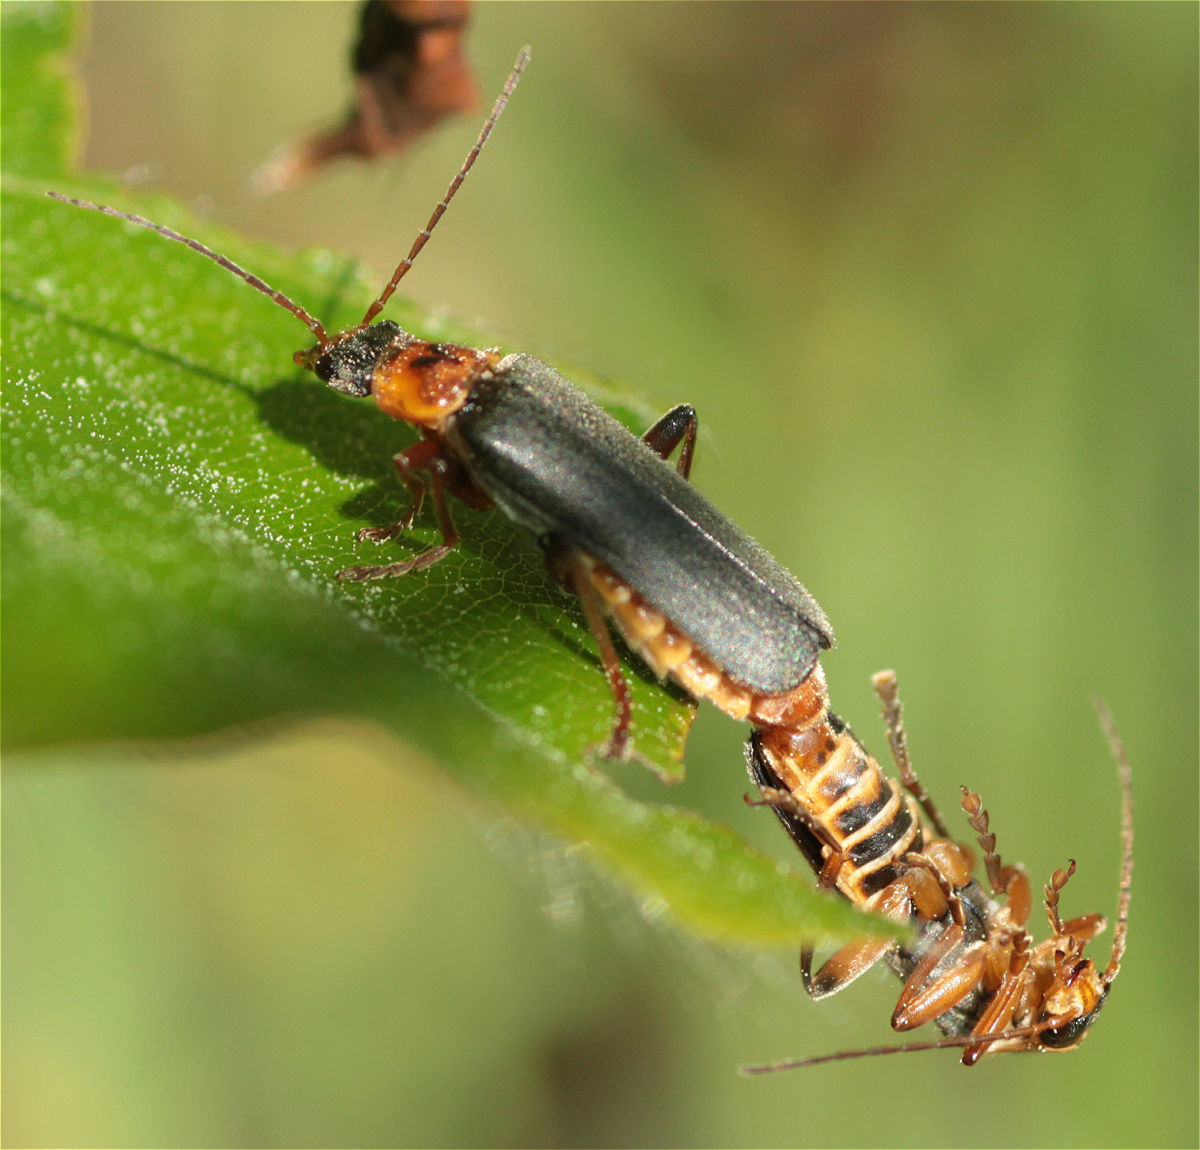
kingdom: Animalia
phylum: Arthropoda
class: Insecta
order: Coleoptera
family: Cantharidae
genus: Cantharis
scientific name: Cantharis nigricans
